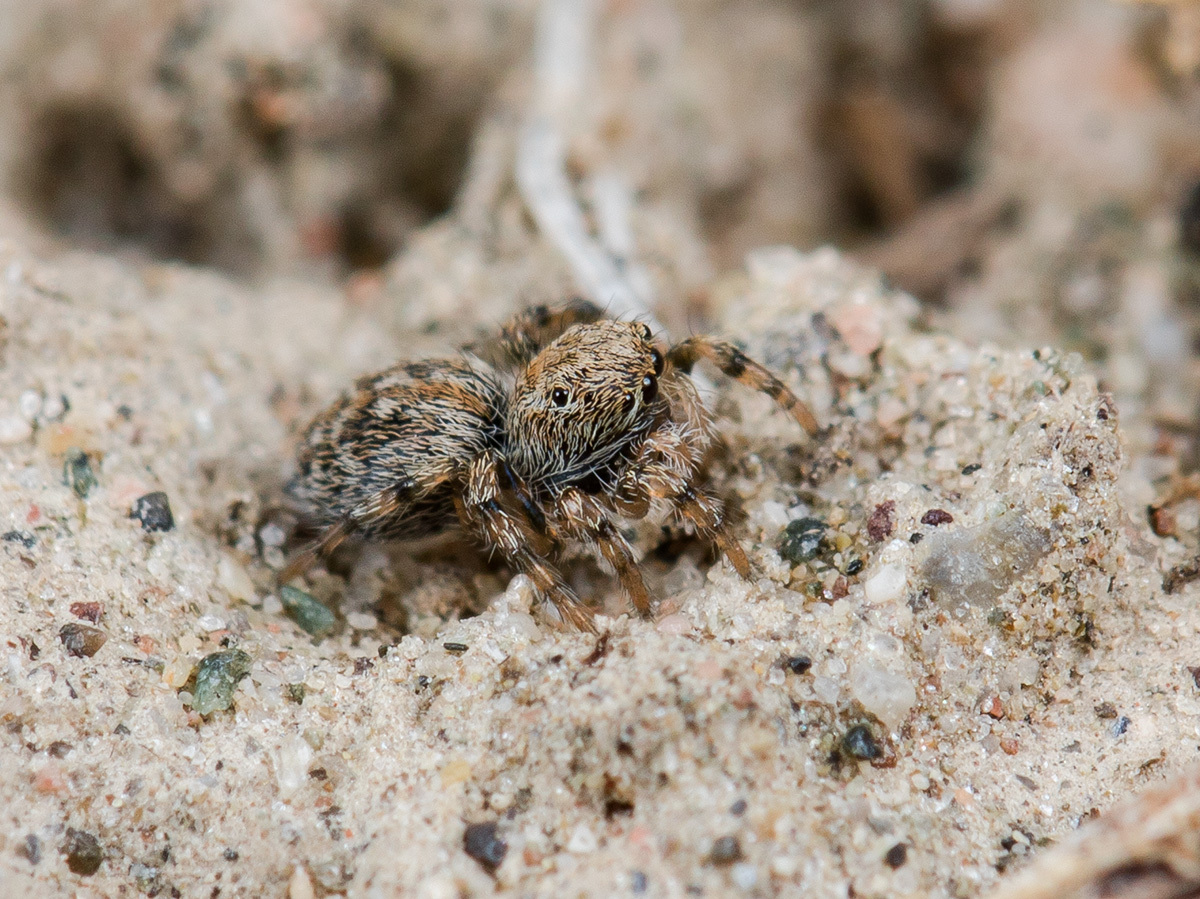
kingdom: Animalia
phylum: Arthropoda
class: Arachnida
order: Araneae
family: Salticidae
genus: Aelurillus
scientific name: Aelurillus dubatolovi
